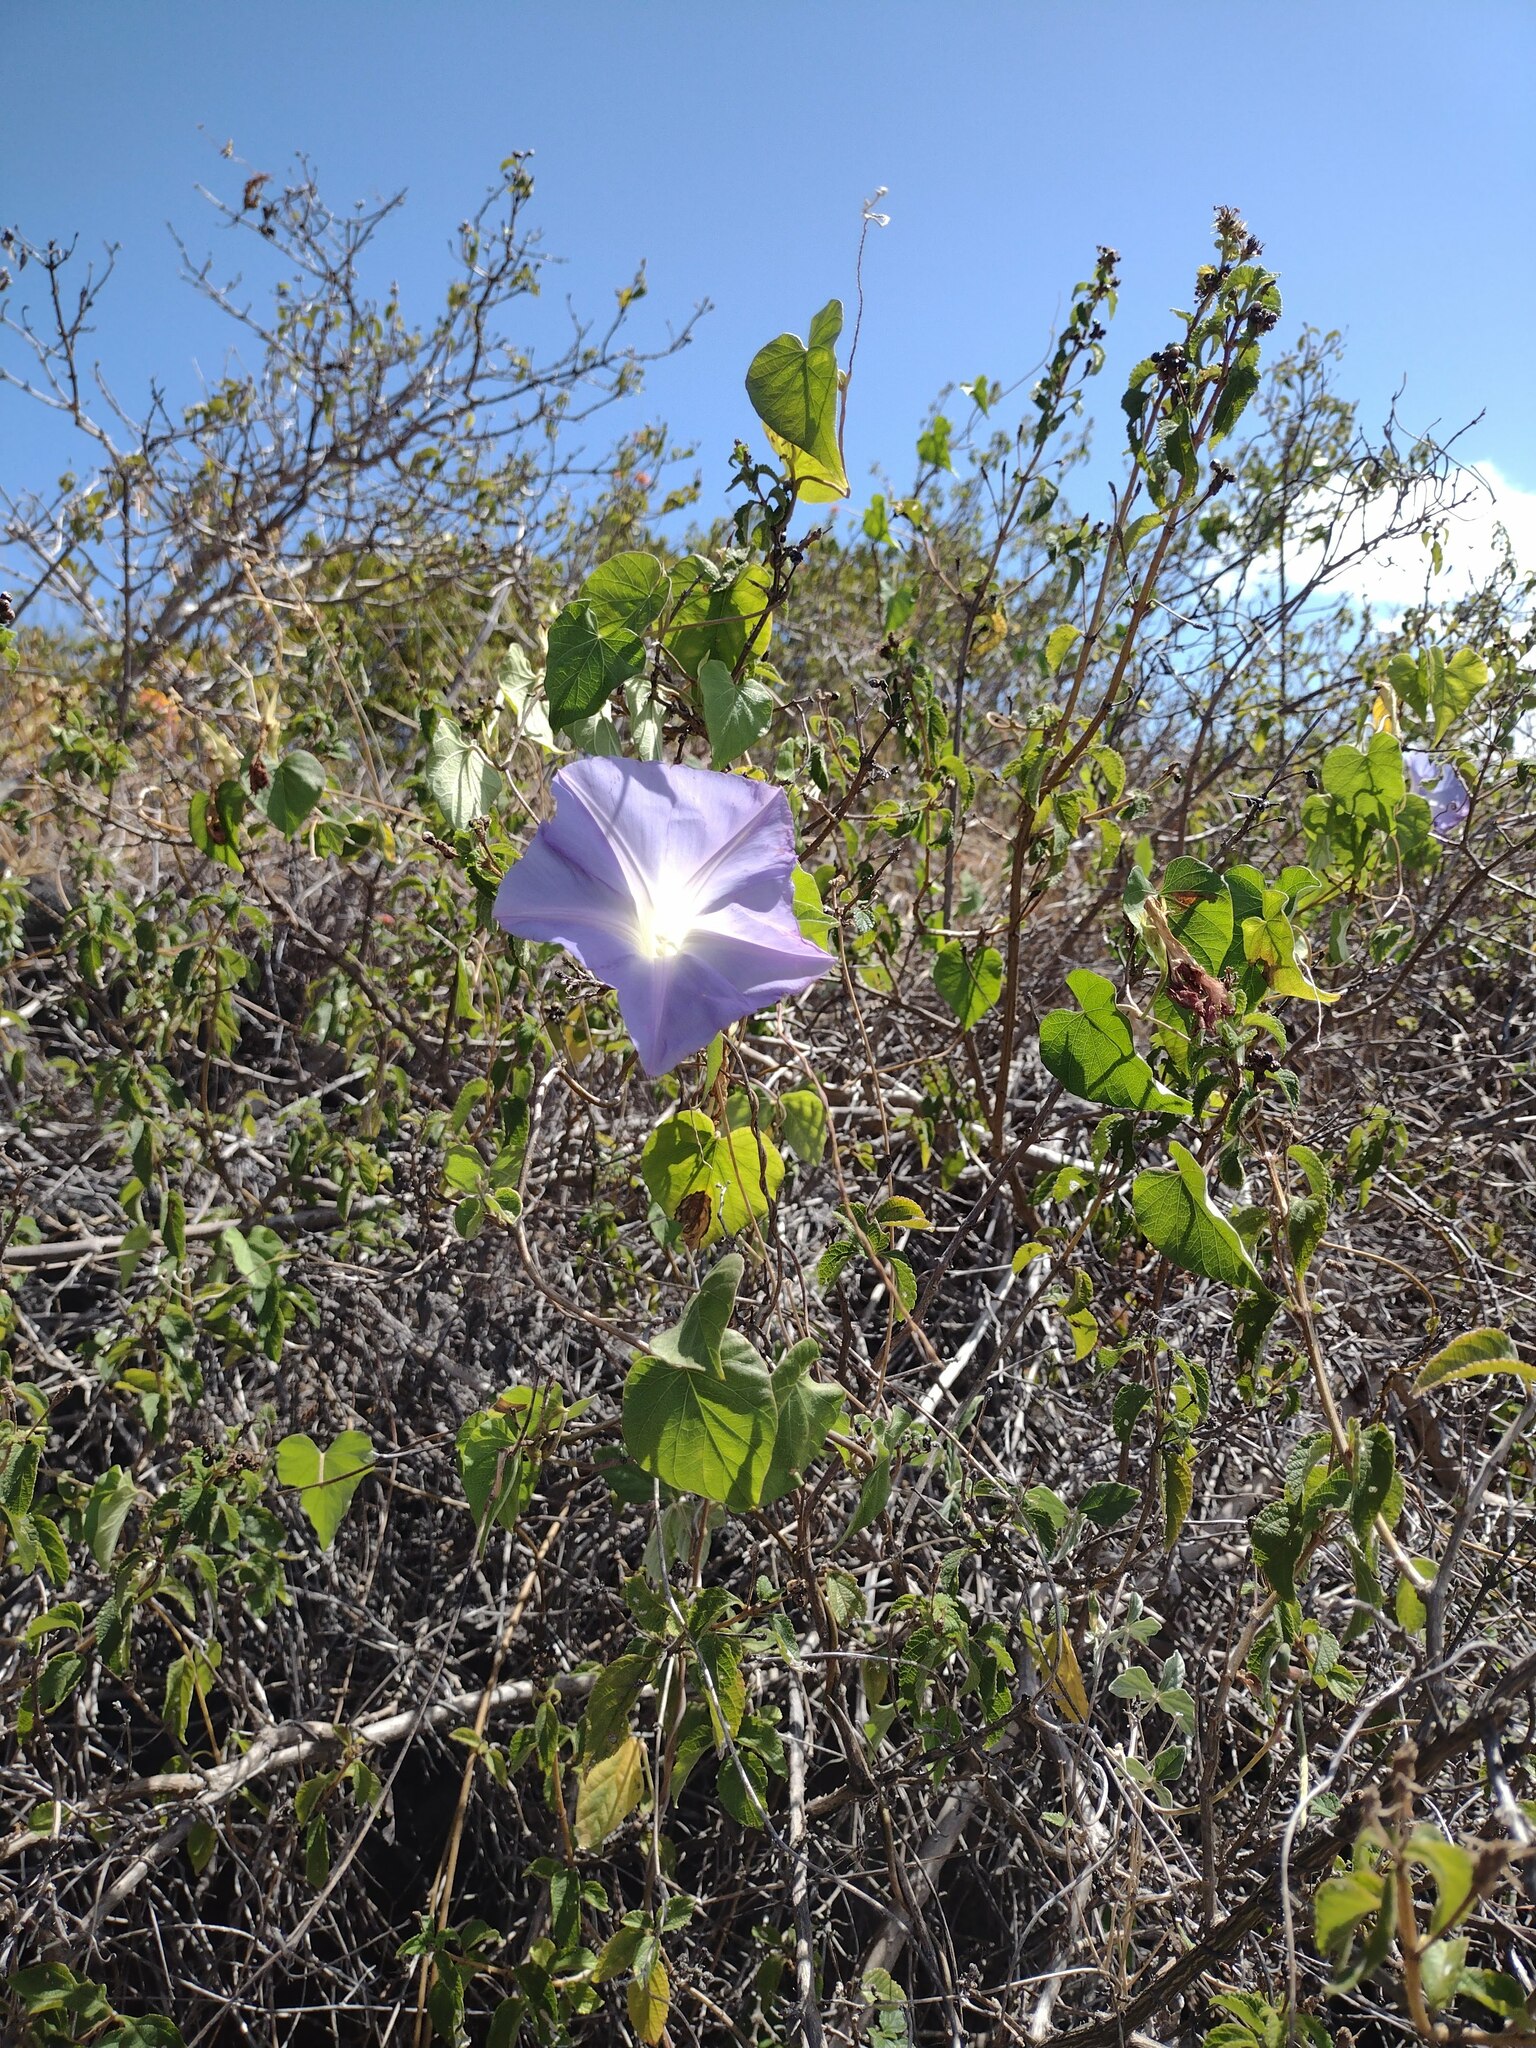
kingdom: Plantae
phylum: Tracheophyta
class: Magnoliopsida
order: Solanales
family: Convolvulaceae
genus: Ipomoea
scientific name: Ipomoea indica
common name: Blue dawnflower
